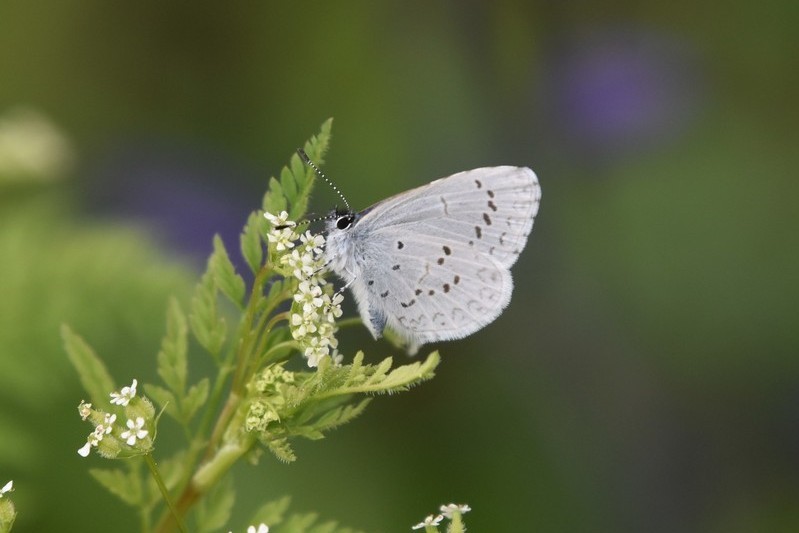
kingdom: Animalia
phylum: Arthropoda
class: Insecta
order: Lepidoptera
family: Lycaenidae
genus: Celastrina
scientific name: Celastrina ladon
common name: Spring azure
